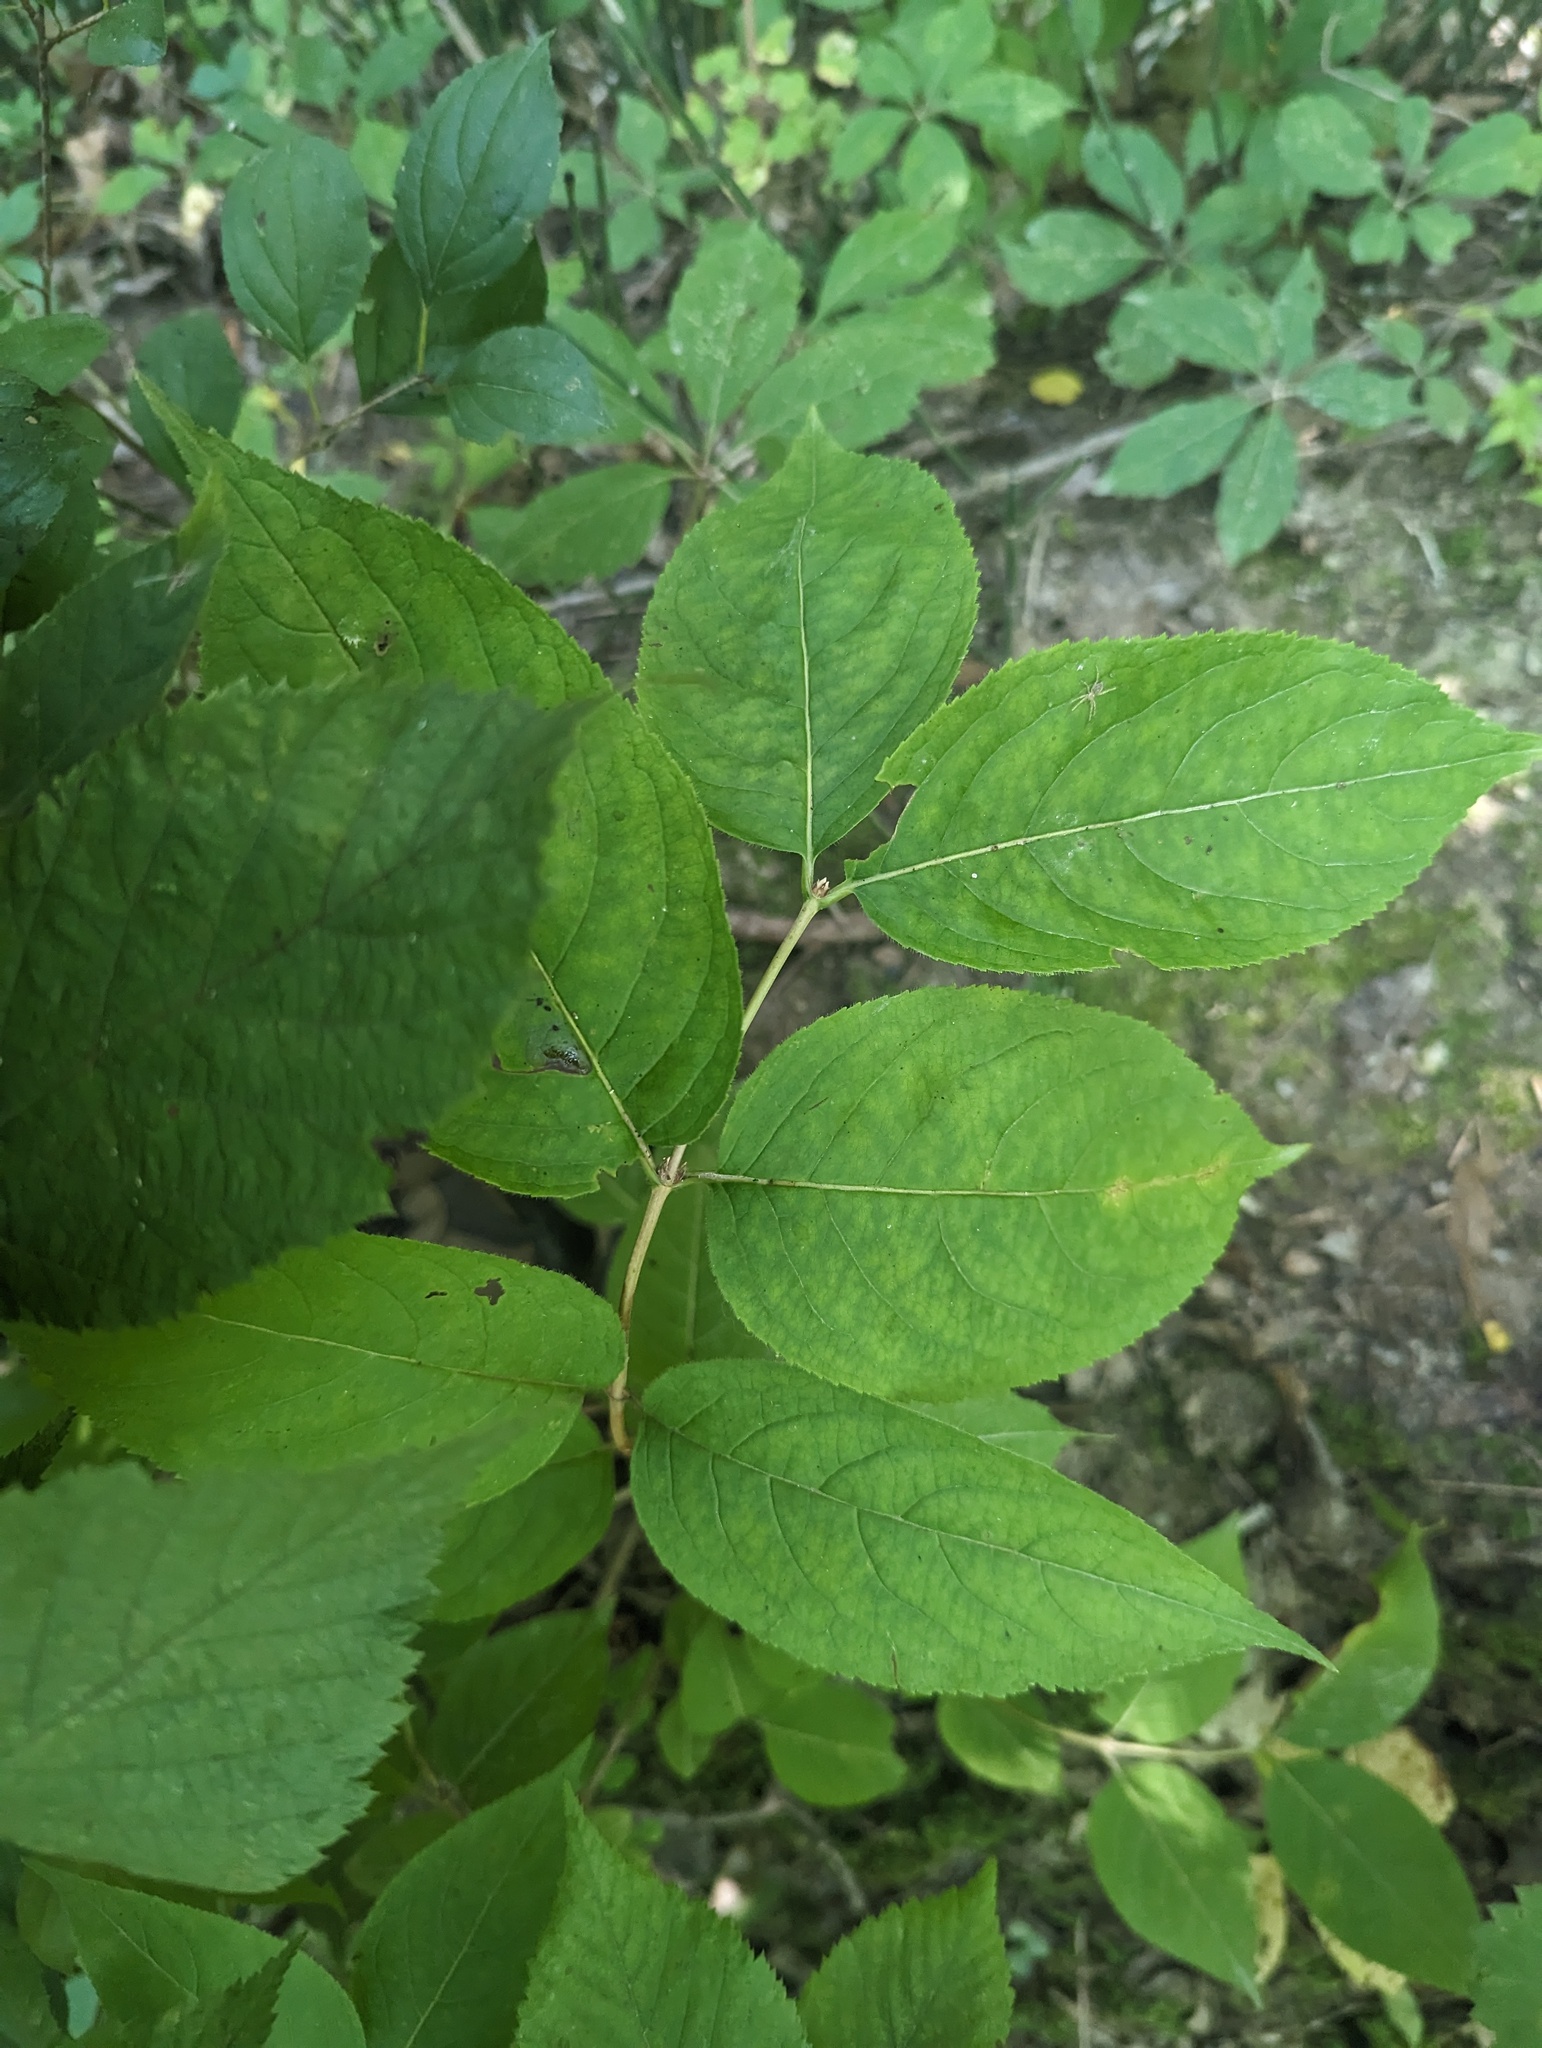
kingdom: Plantae
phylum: Tracheophyta
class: Magnoliopsida
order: Dipsacales
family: Caprifoliaceae
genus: Diervilla
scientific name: Diervilla lonicera
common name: Bush-honeysuckle
